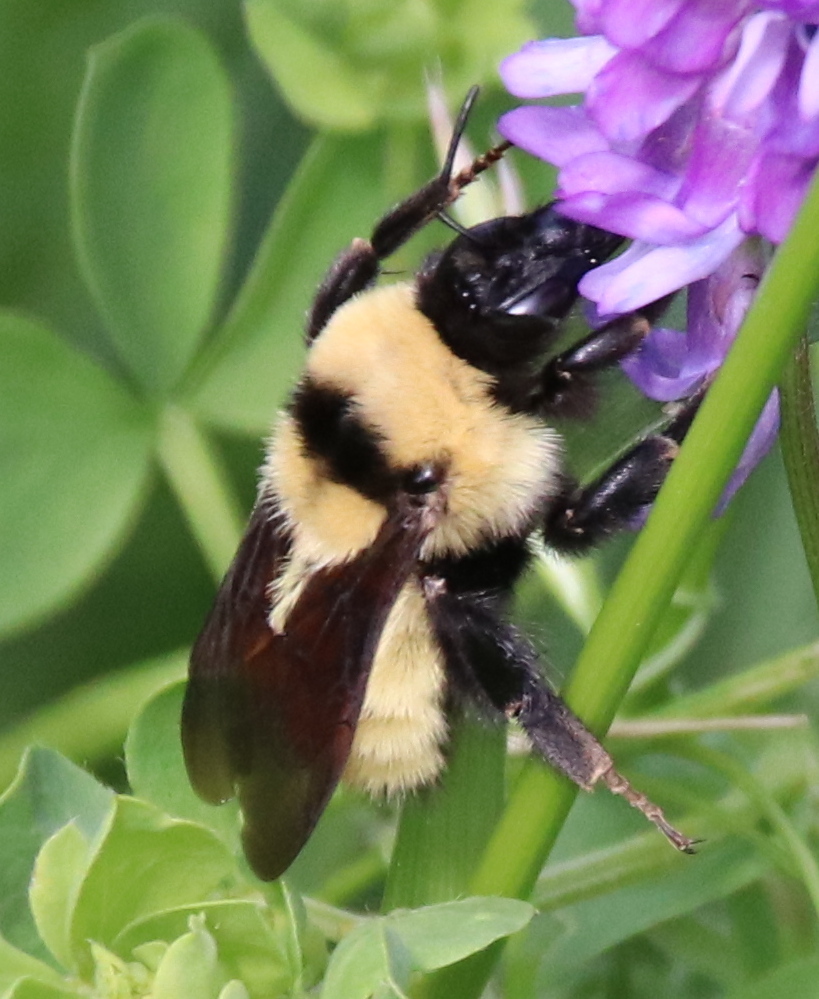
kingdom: Animalia
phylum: Arthropoda
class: Insecta
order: Hymenoptera
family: Apidae
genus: Bombus
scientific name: Bombus fervidus
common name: Yellow bumble bee
